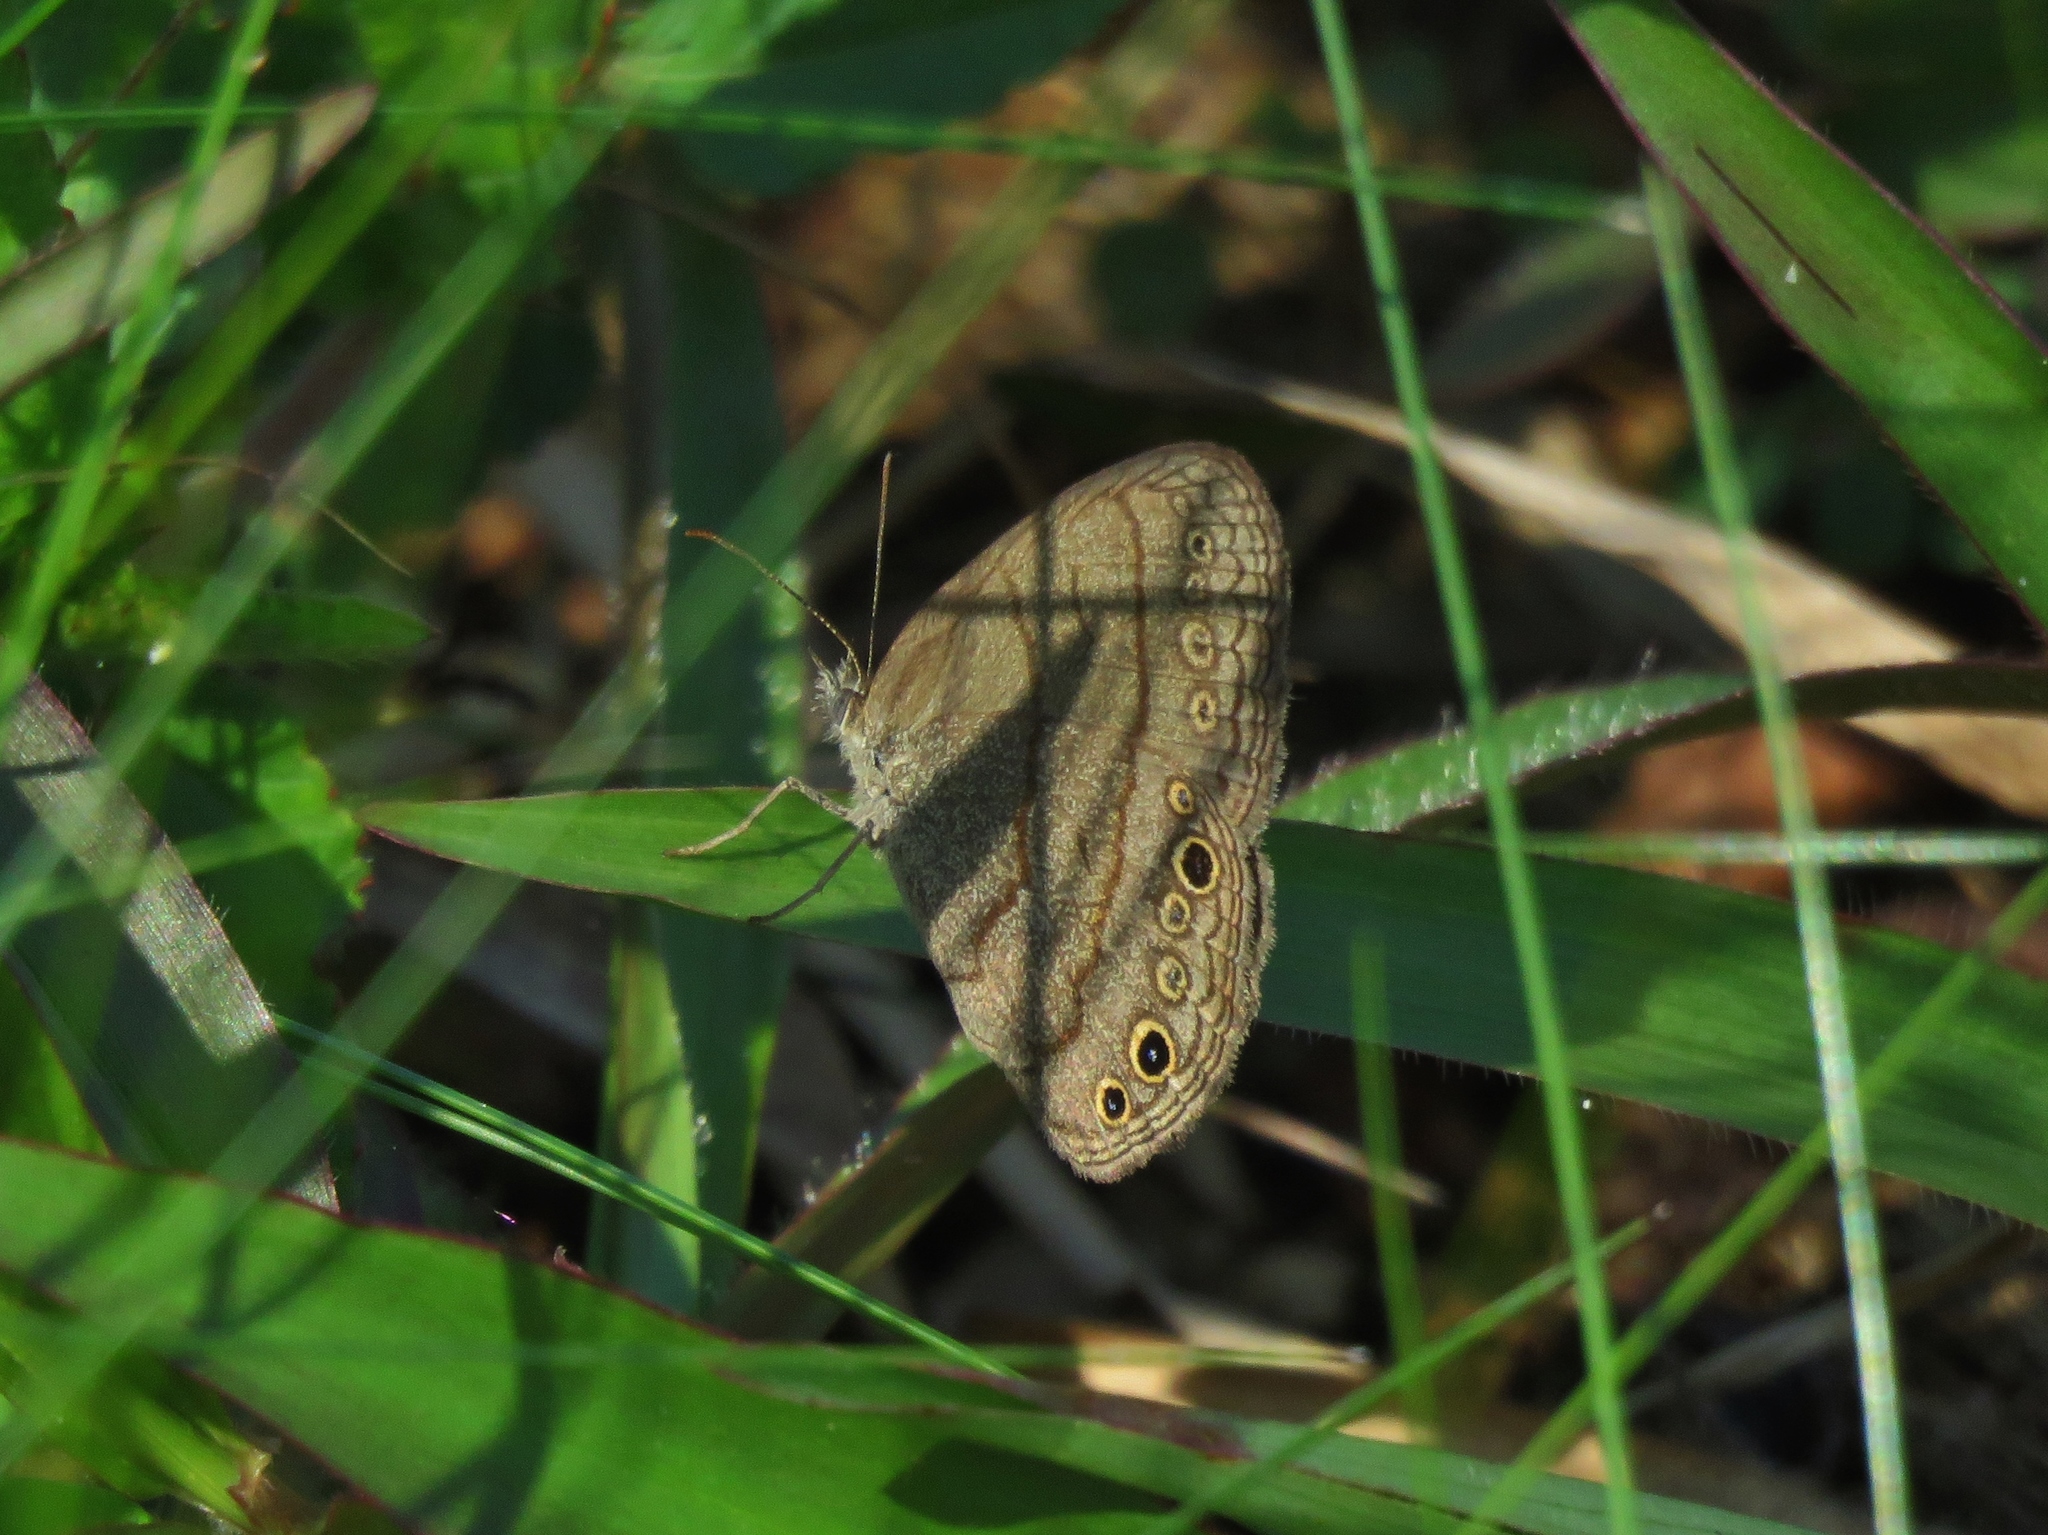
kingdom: Animalia
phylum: Arthropoda
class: Insecta
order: Lepidoptera
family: Nymphalidae
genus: Hermeuptychia
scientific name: Hermeuptychia hermes
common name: Hermes satyr
